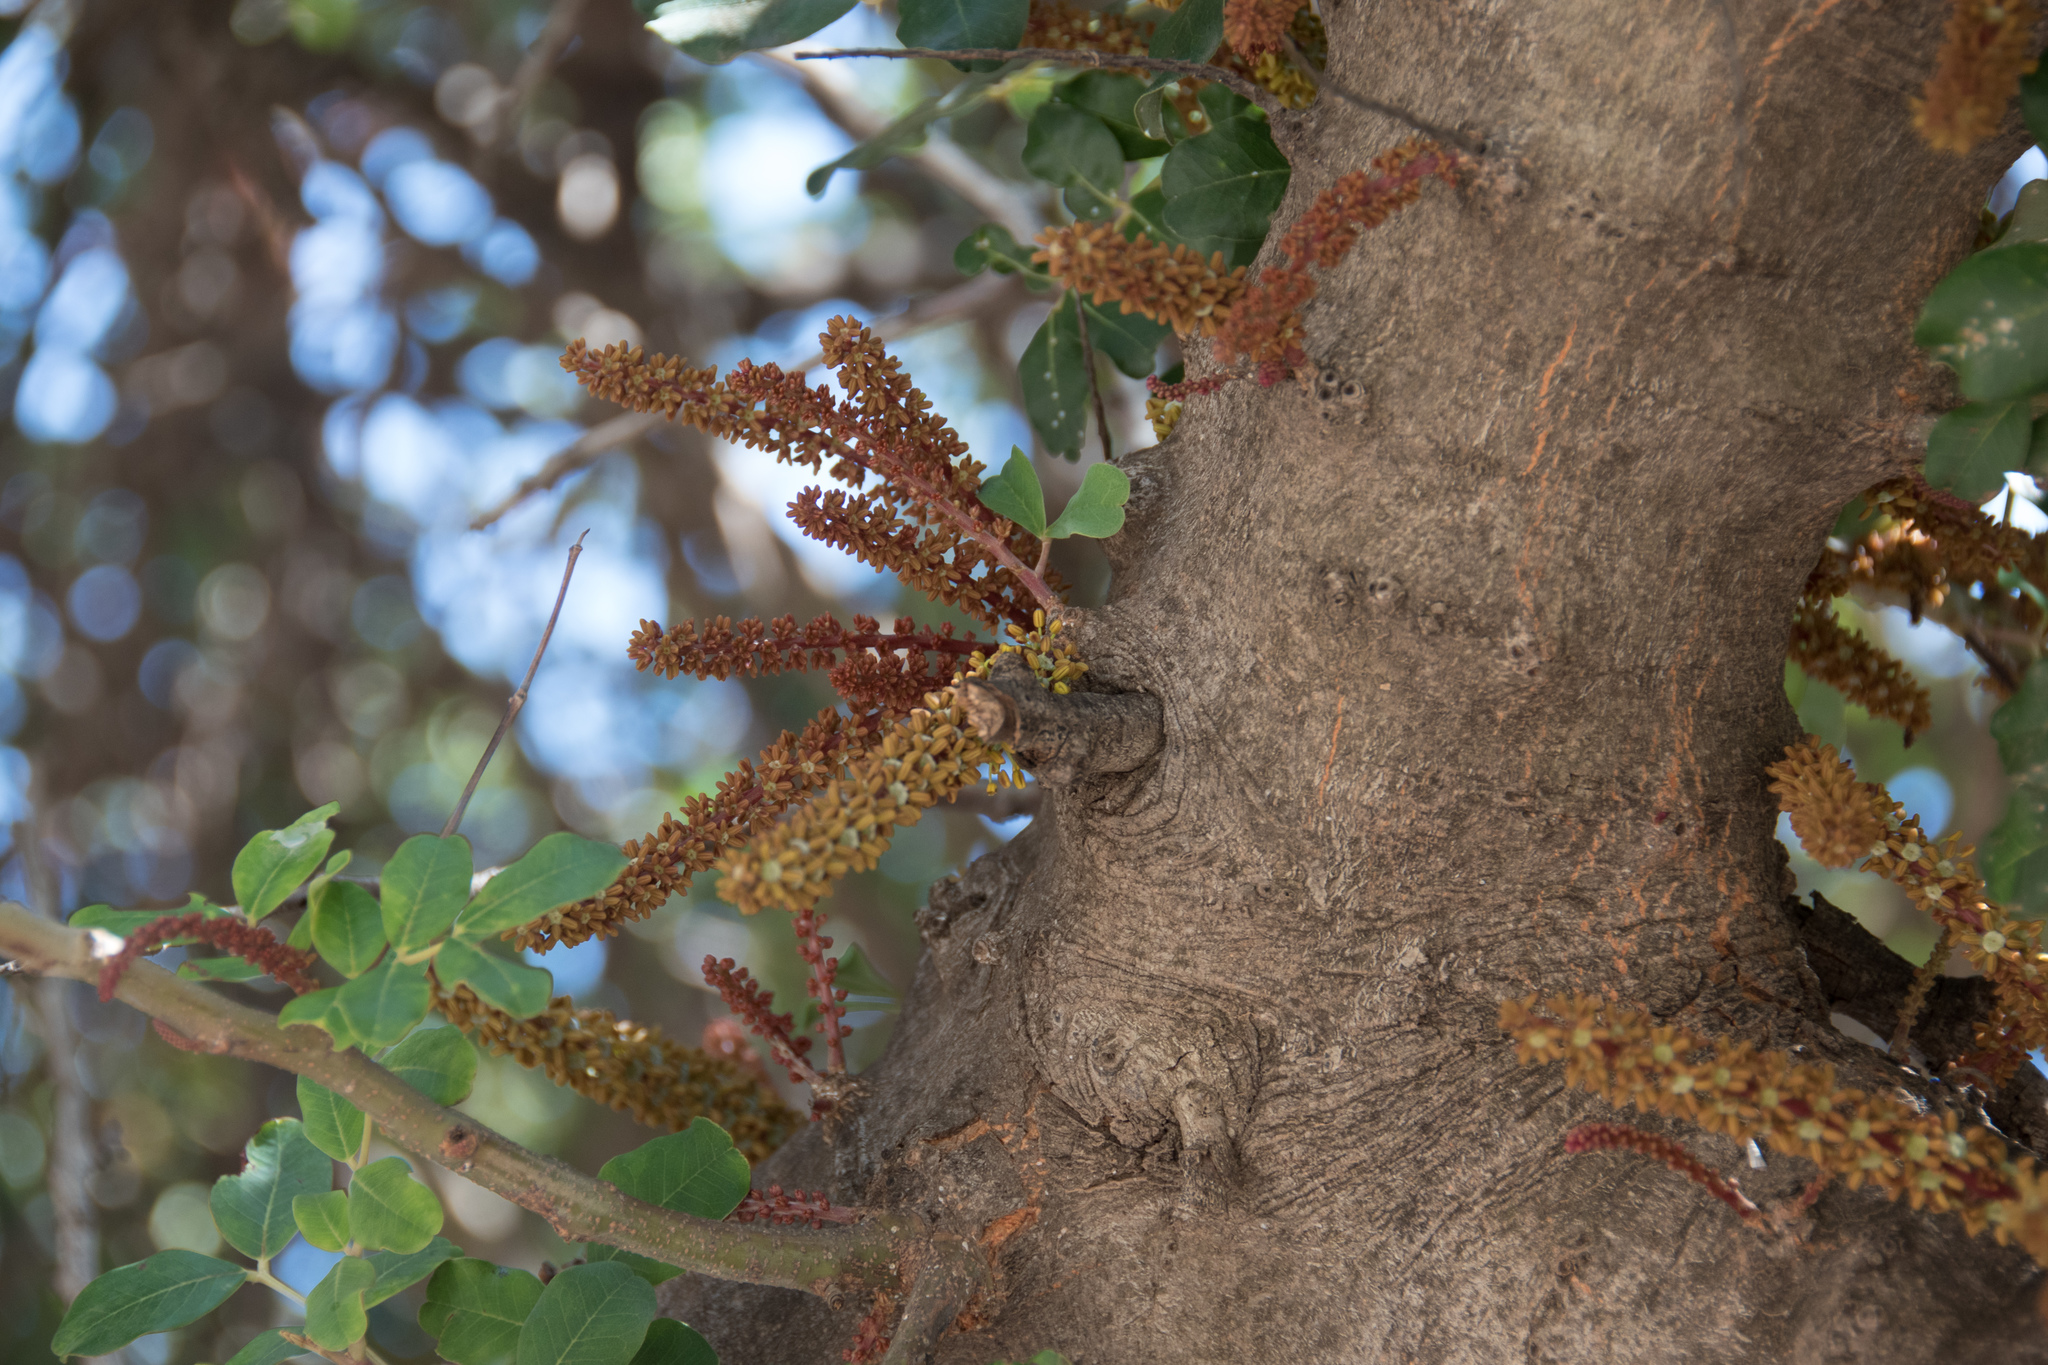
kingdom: Plantae
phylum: Tracheophyta
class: Magnoliopsida
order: Fabales
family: Fabaceae
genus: Ceratonia
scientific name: Ceratonia siliqua
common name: Carob
